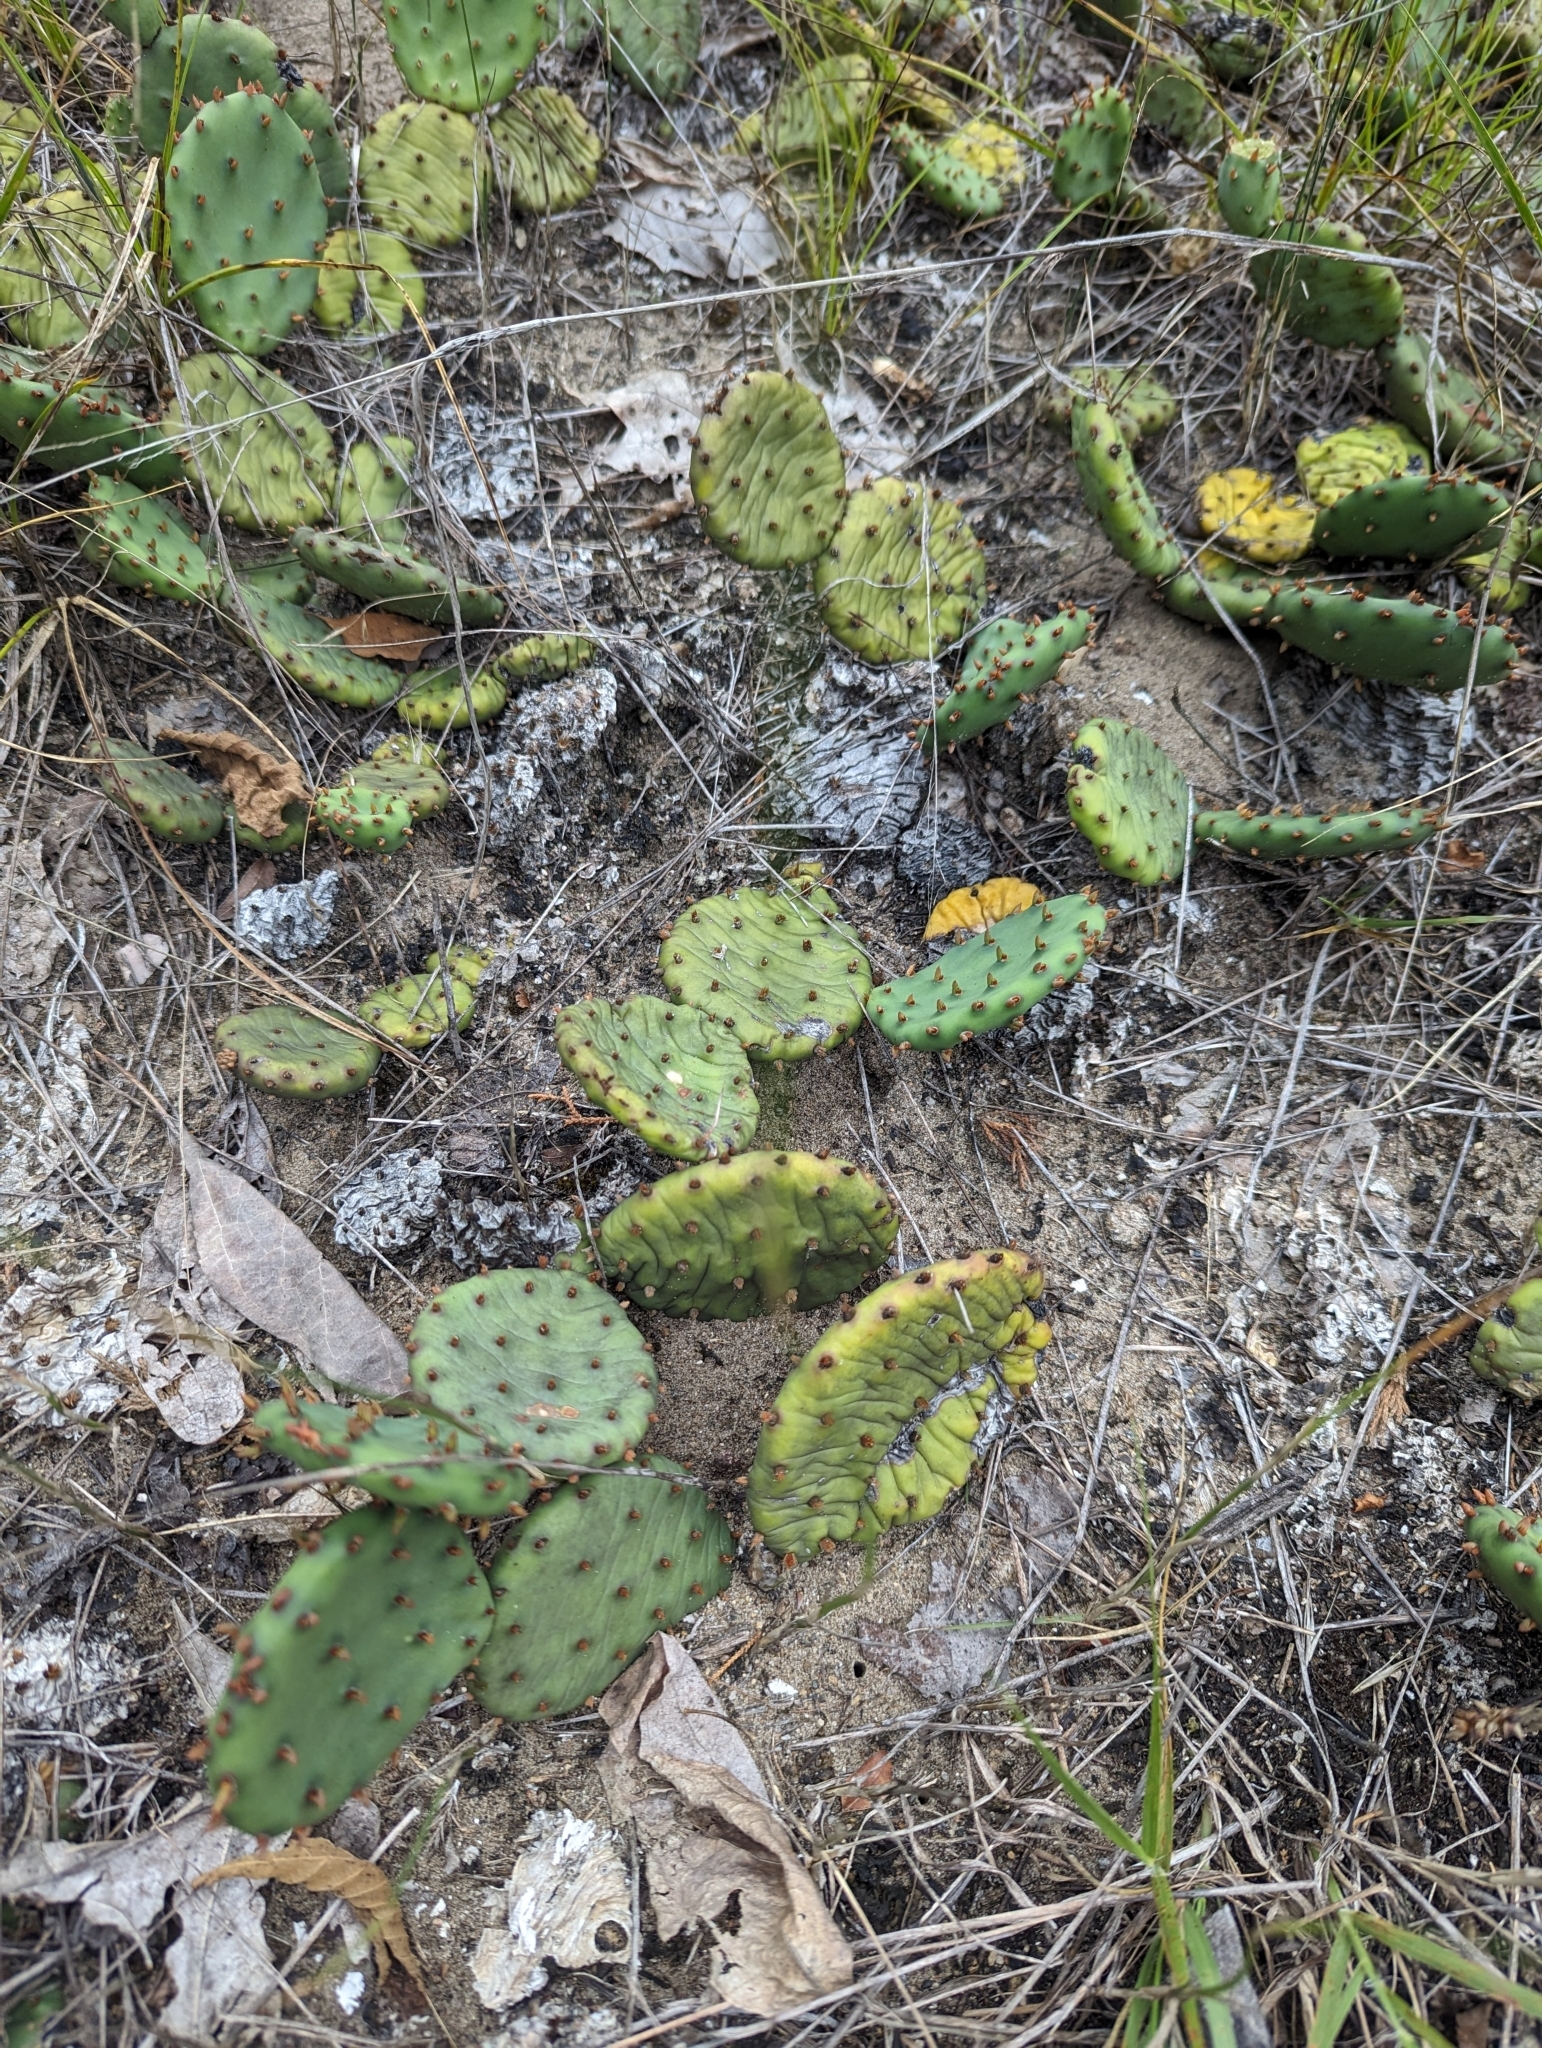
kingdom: Plantae
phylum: Tracheophyta
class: Magnoliopsida
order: Caryophyllales
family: Cactaceae
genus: Opuntia
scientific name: Opuntia humifusa
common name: Eastern prickly-pear
